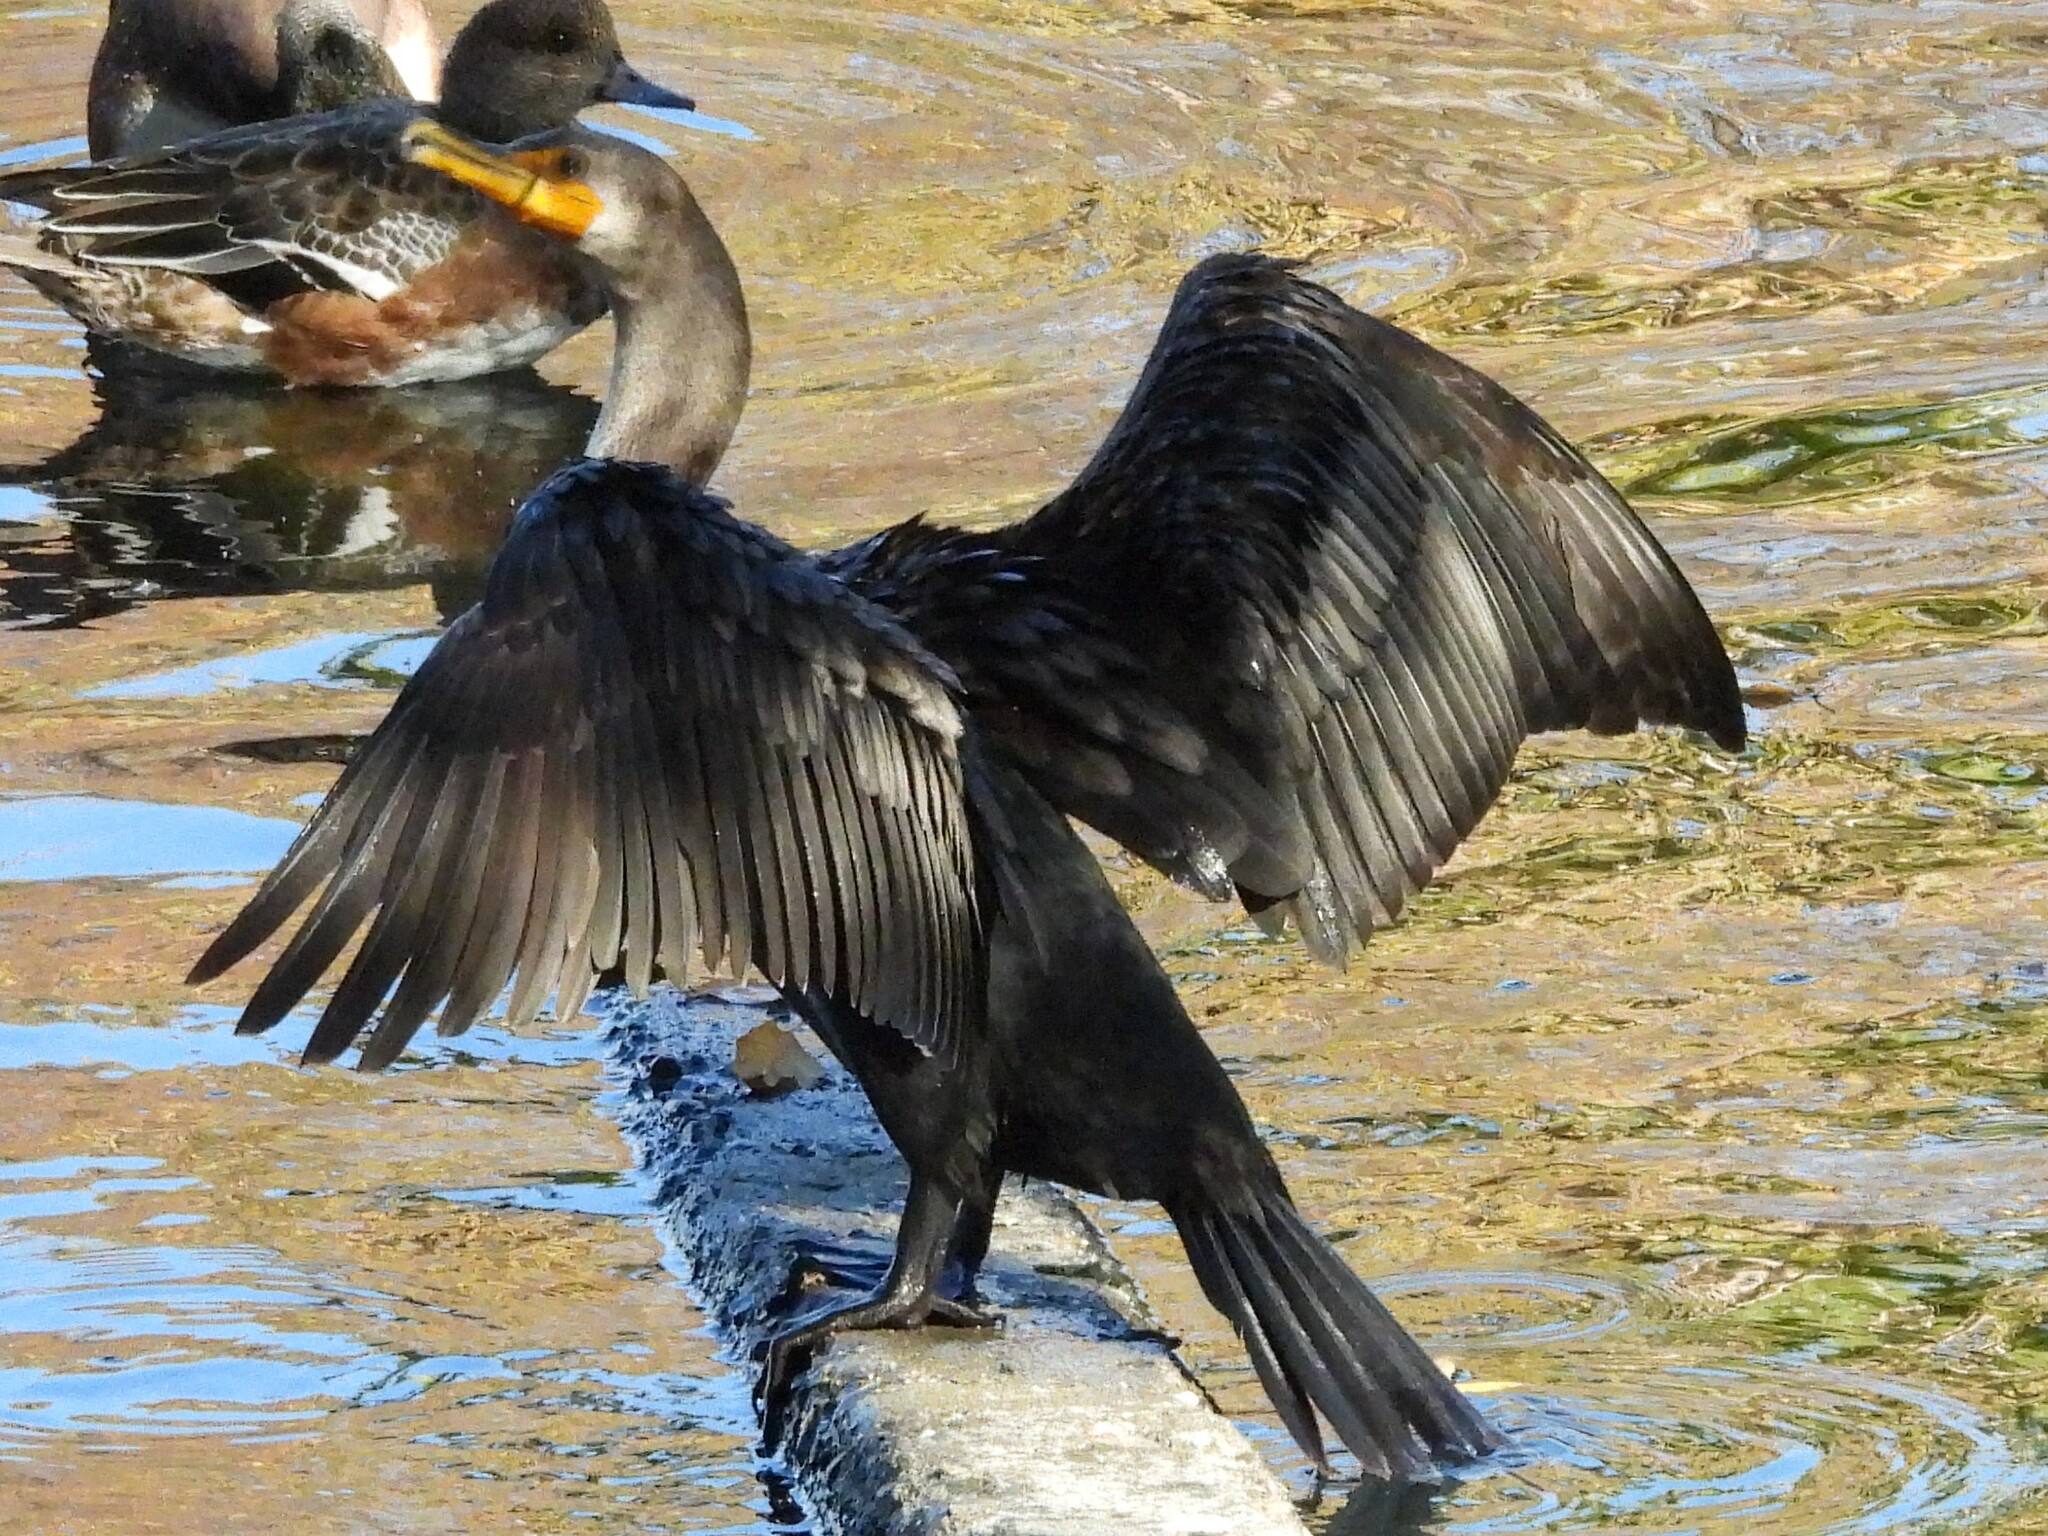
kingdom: Animalia
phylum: Chordata
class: Aves
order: Suliformes
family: Phalacrocoracidae
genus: Phalacrocorax
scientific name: Phalacrocorax auritus
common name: Double-crested cormorant
